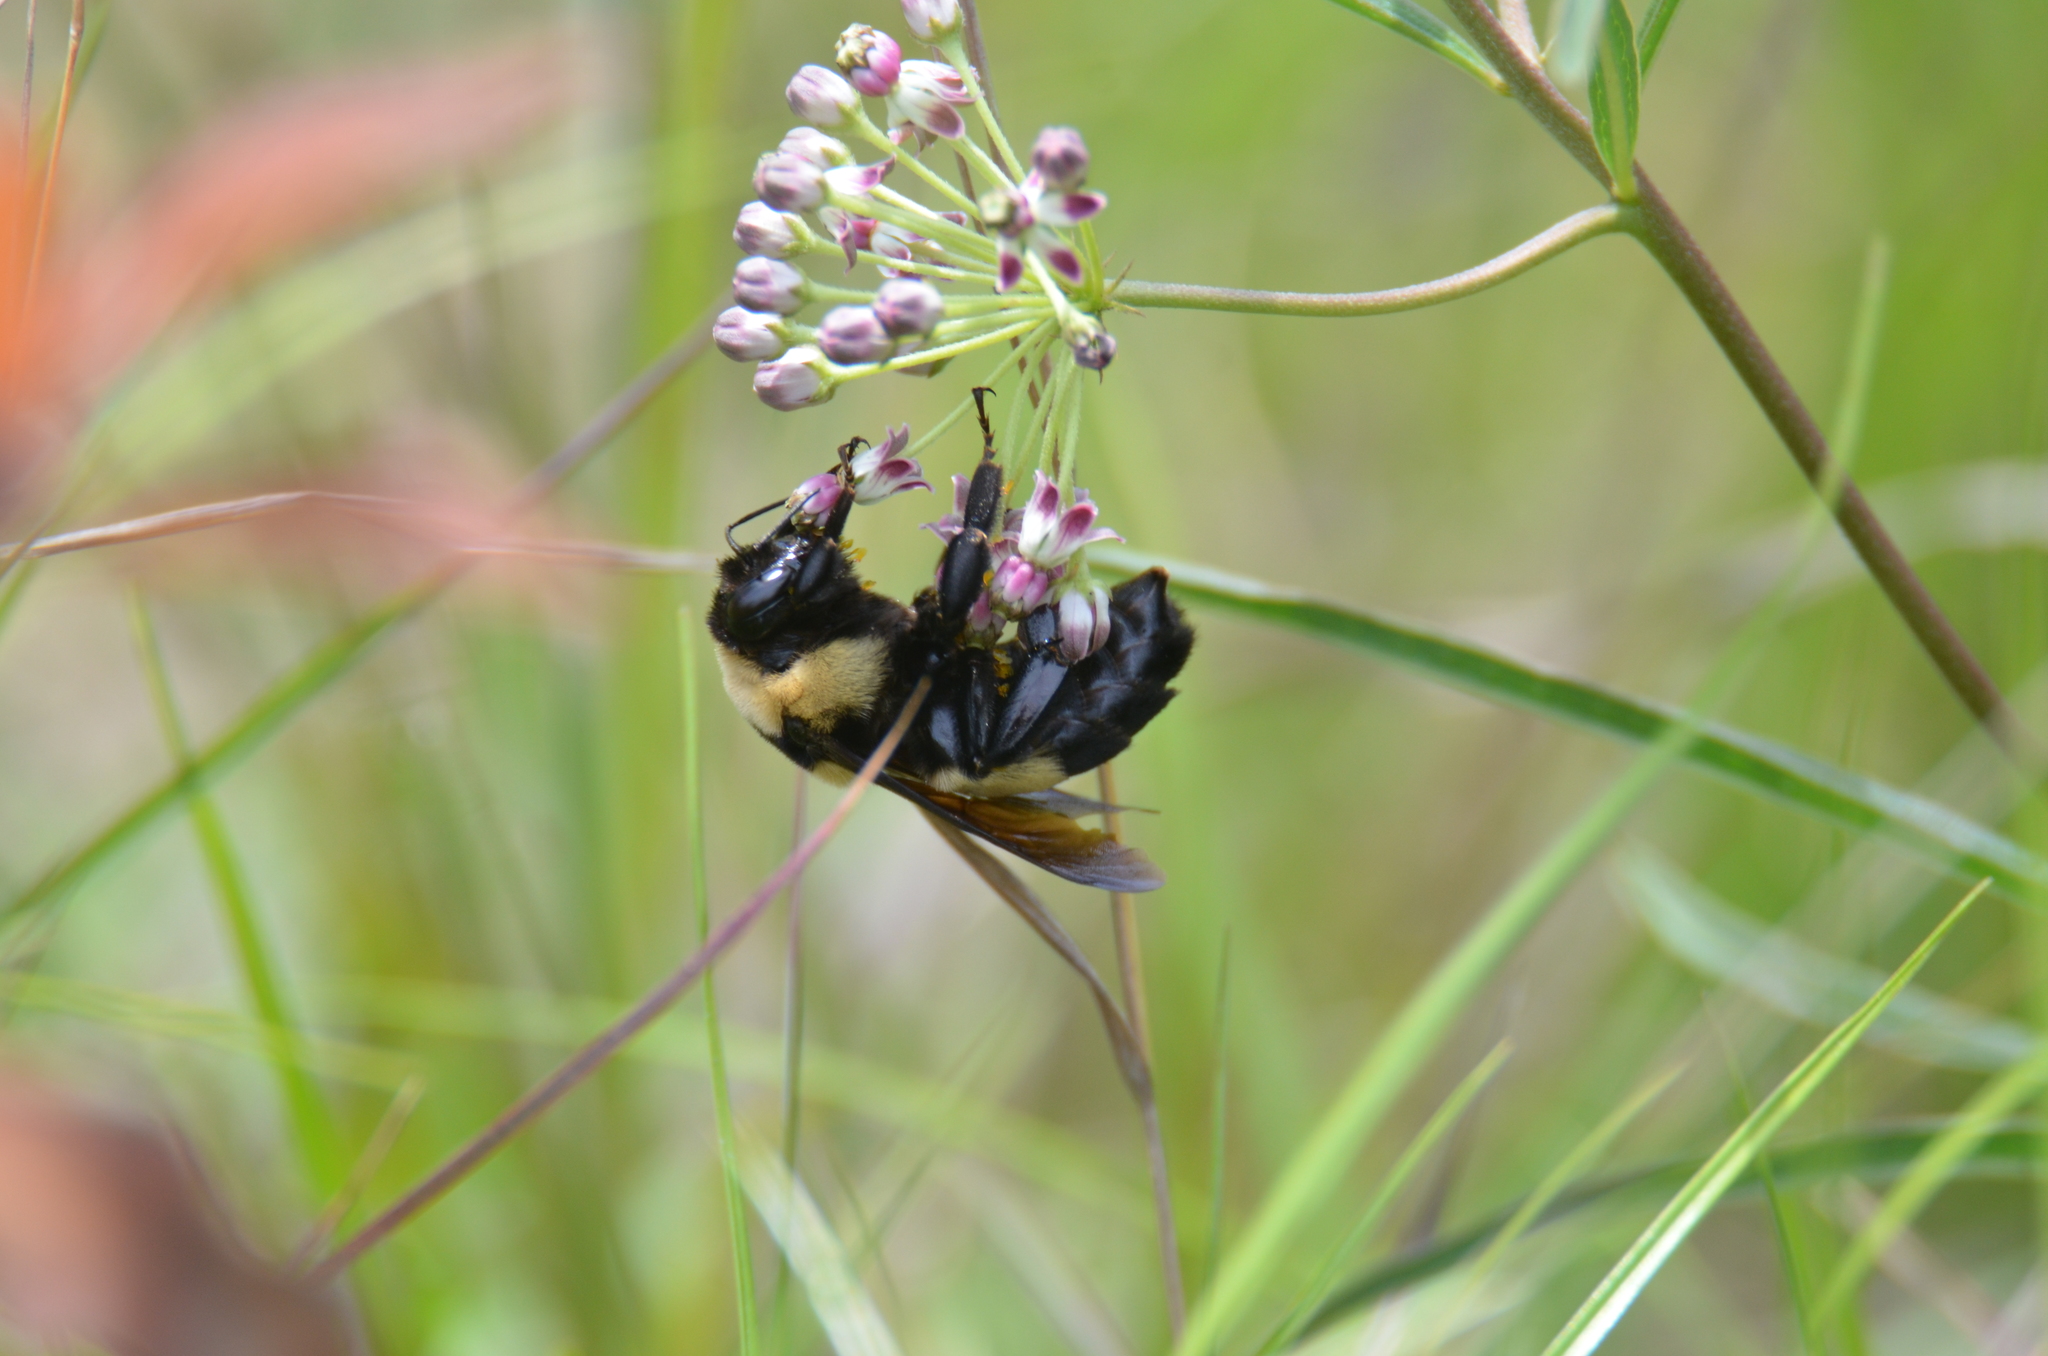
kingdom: Animalia
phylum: Arthropoda
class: Insecta
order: Hymenoptera
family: Apidae
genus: Bombus
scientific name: Bombus fraternus
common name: Southern plains bumble bee
